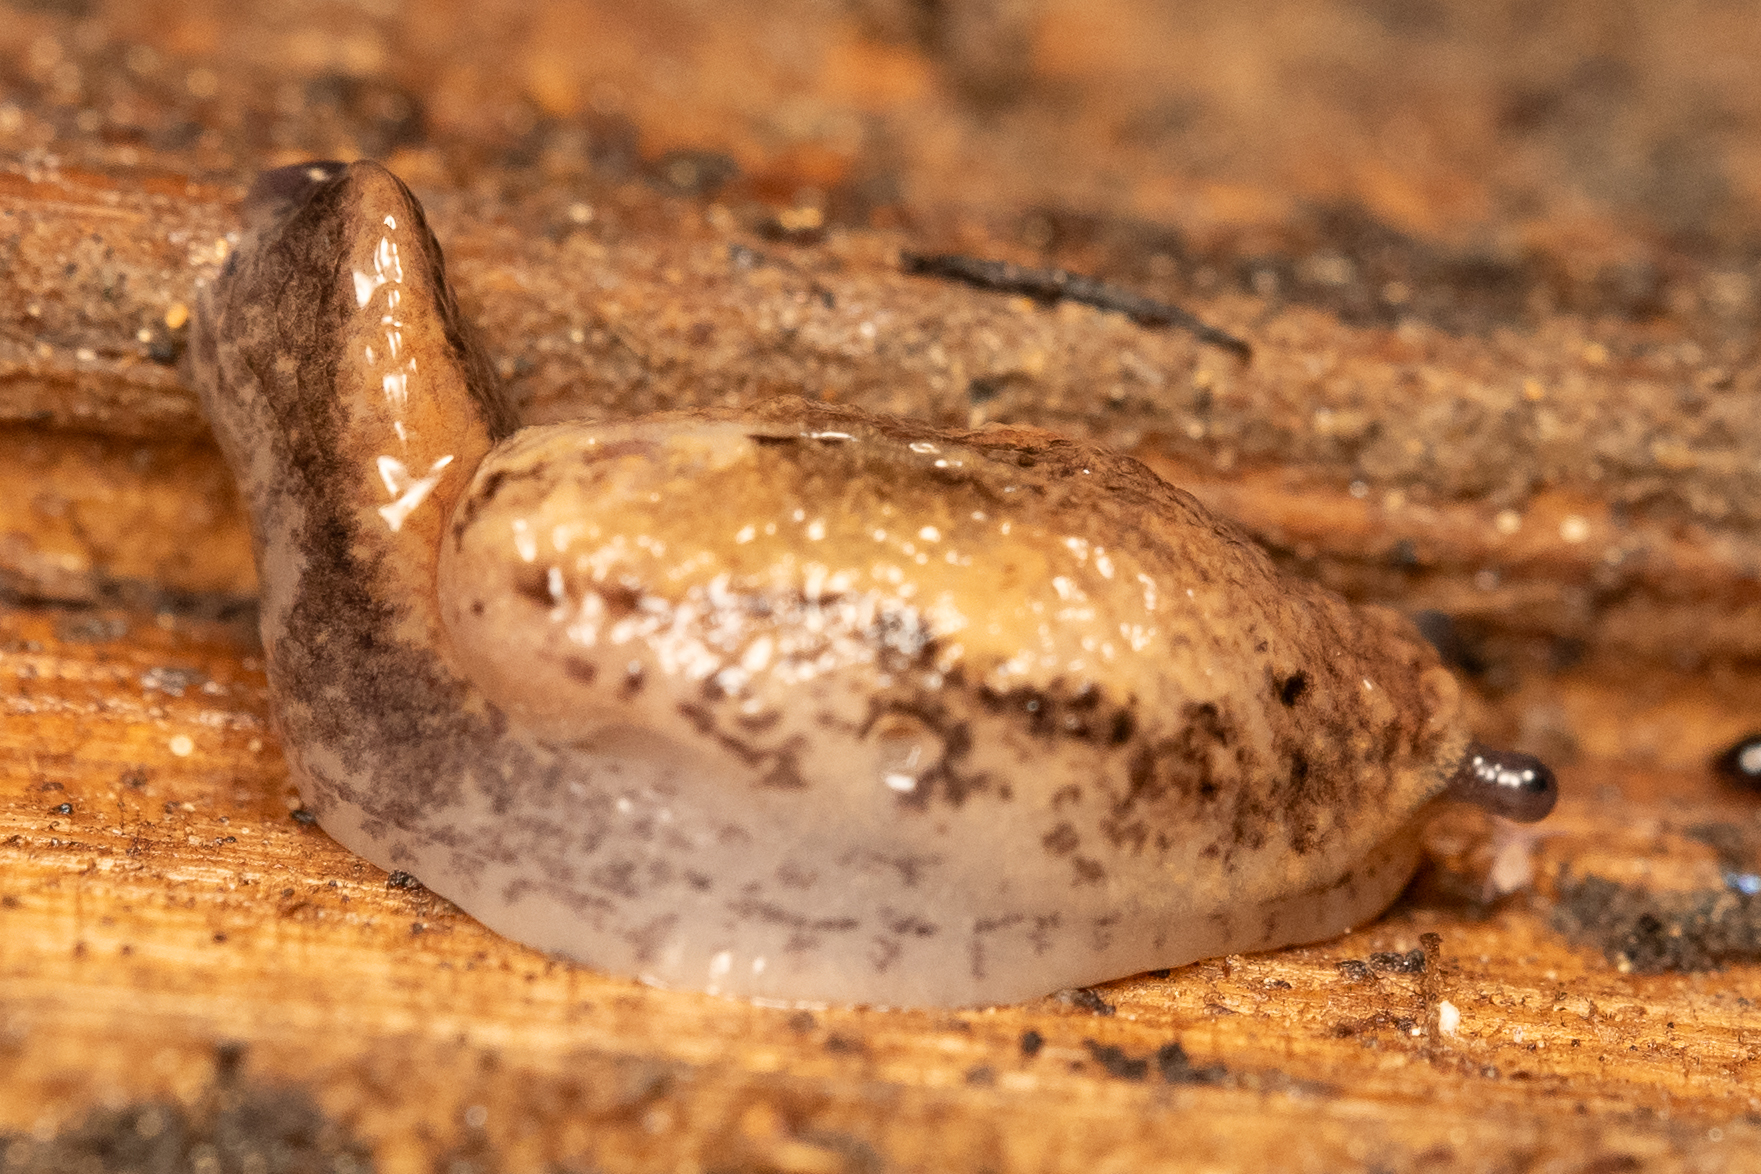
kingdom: Animalia
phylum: Mollusca
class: Gastropoda
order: Stylommatophora
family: Binneyidae
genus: Hemphillia
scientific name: Hemphillia camelus
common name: Pale jumping slug
